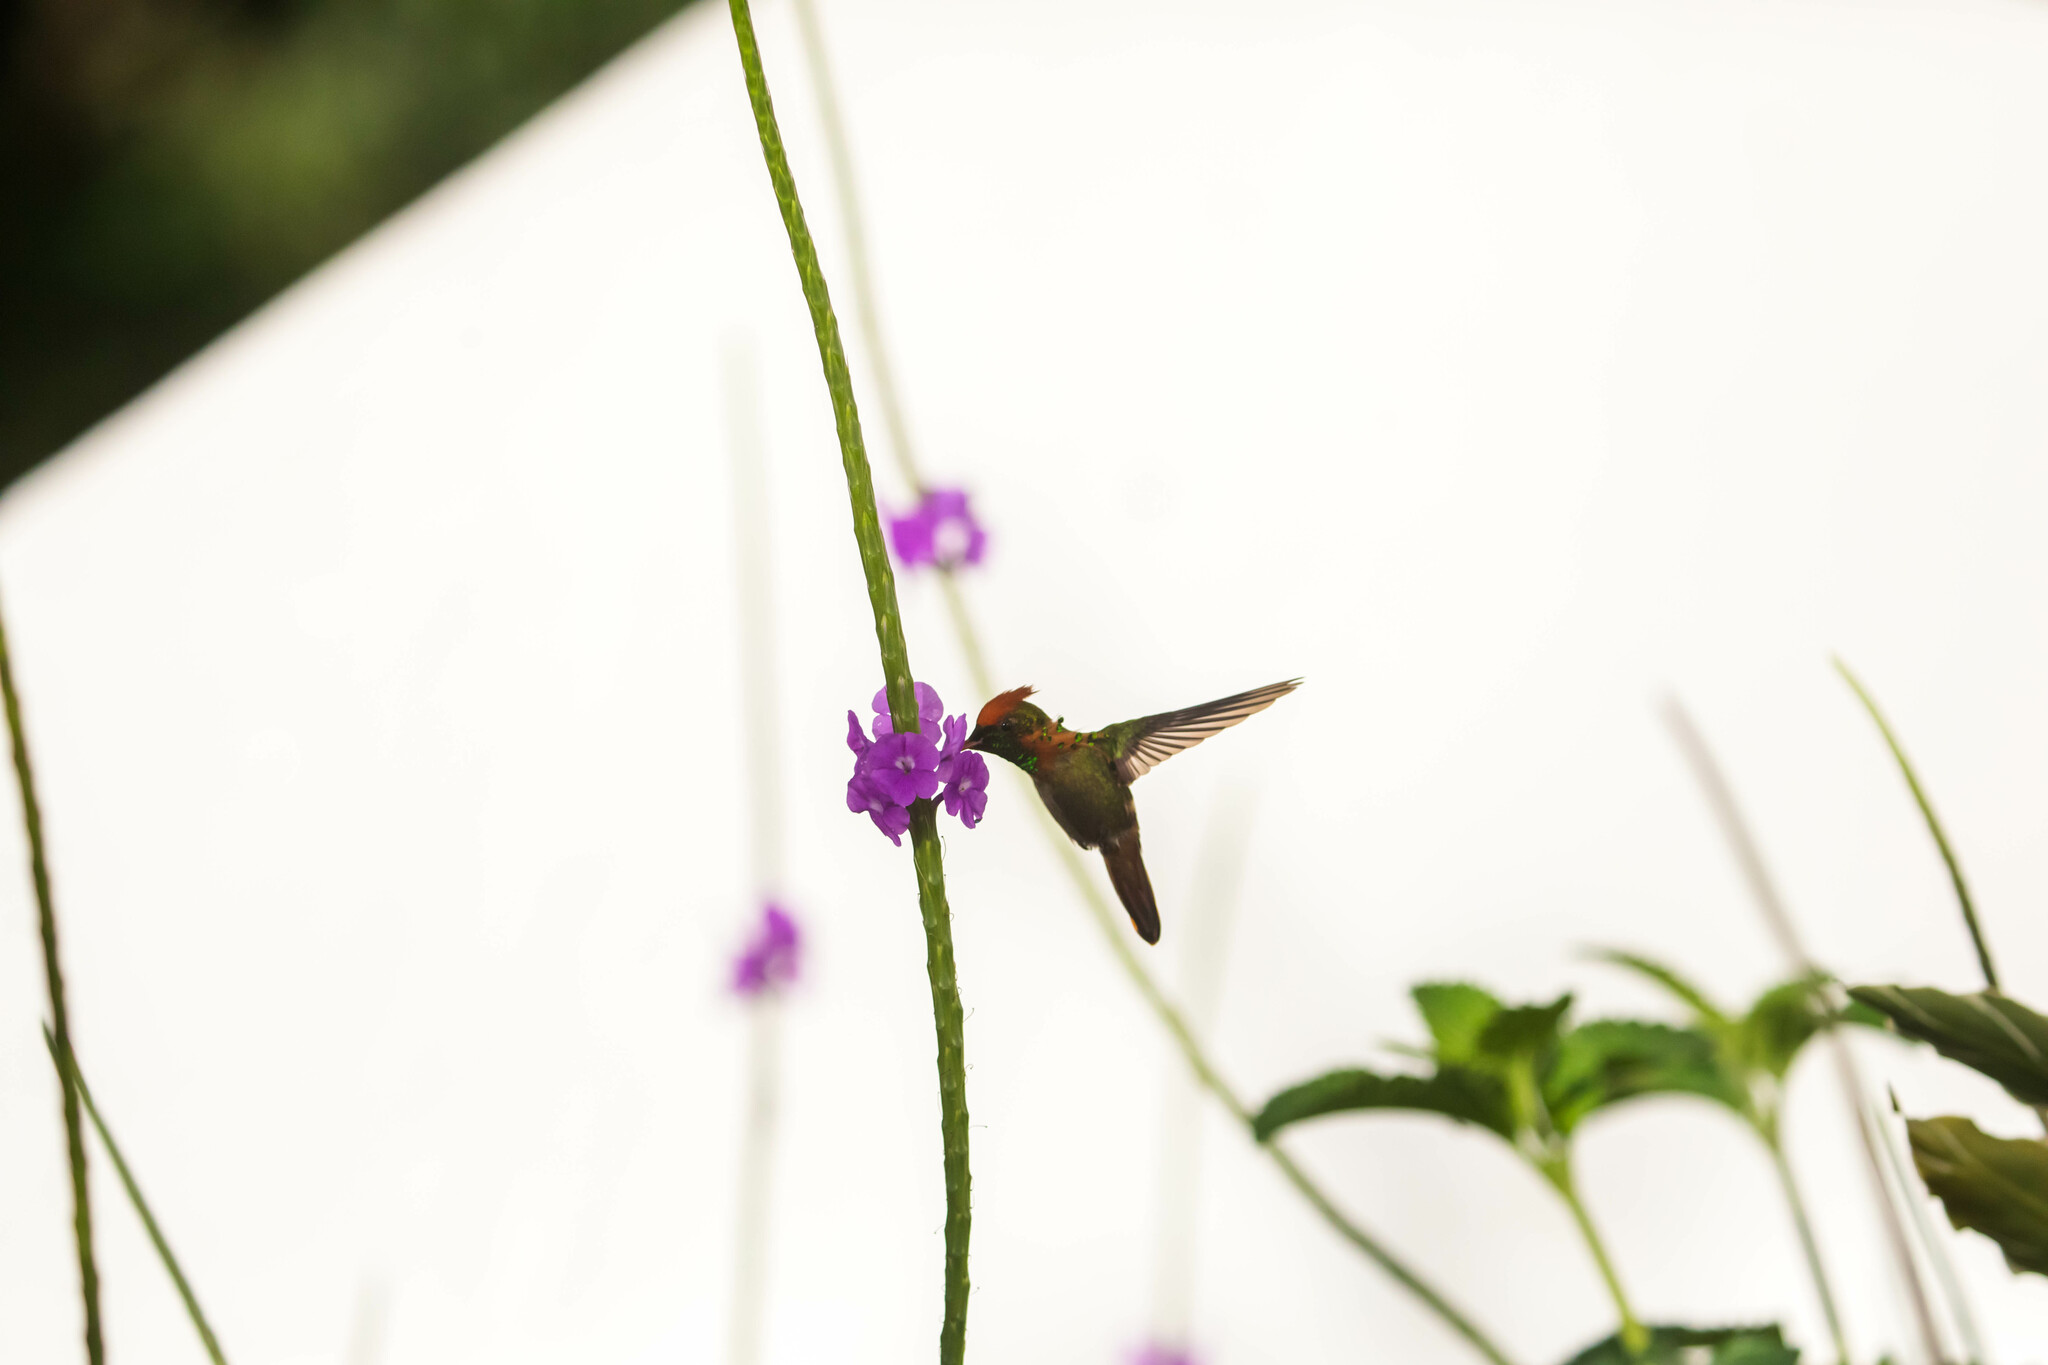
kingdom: Animalia
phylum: Chordata
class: Aves
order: Apodiformes
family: Trochilidae
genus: Lophornis
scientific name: Lophornis ornatus
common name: Tufted coquette
